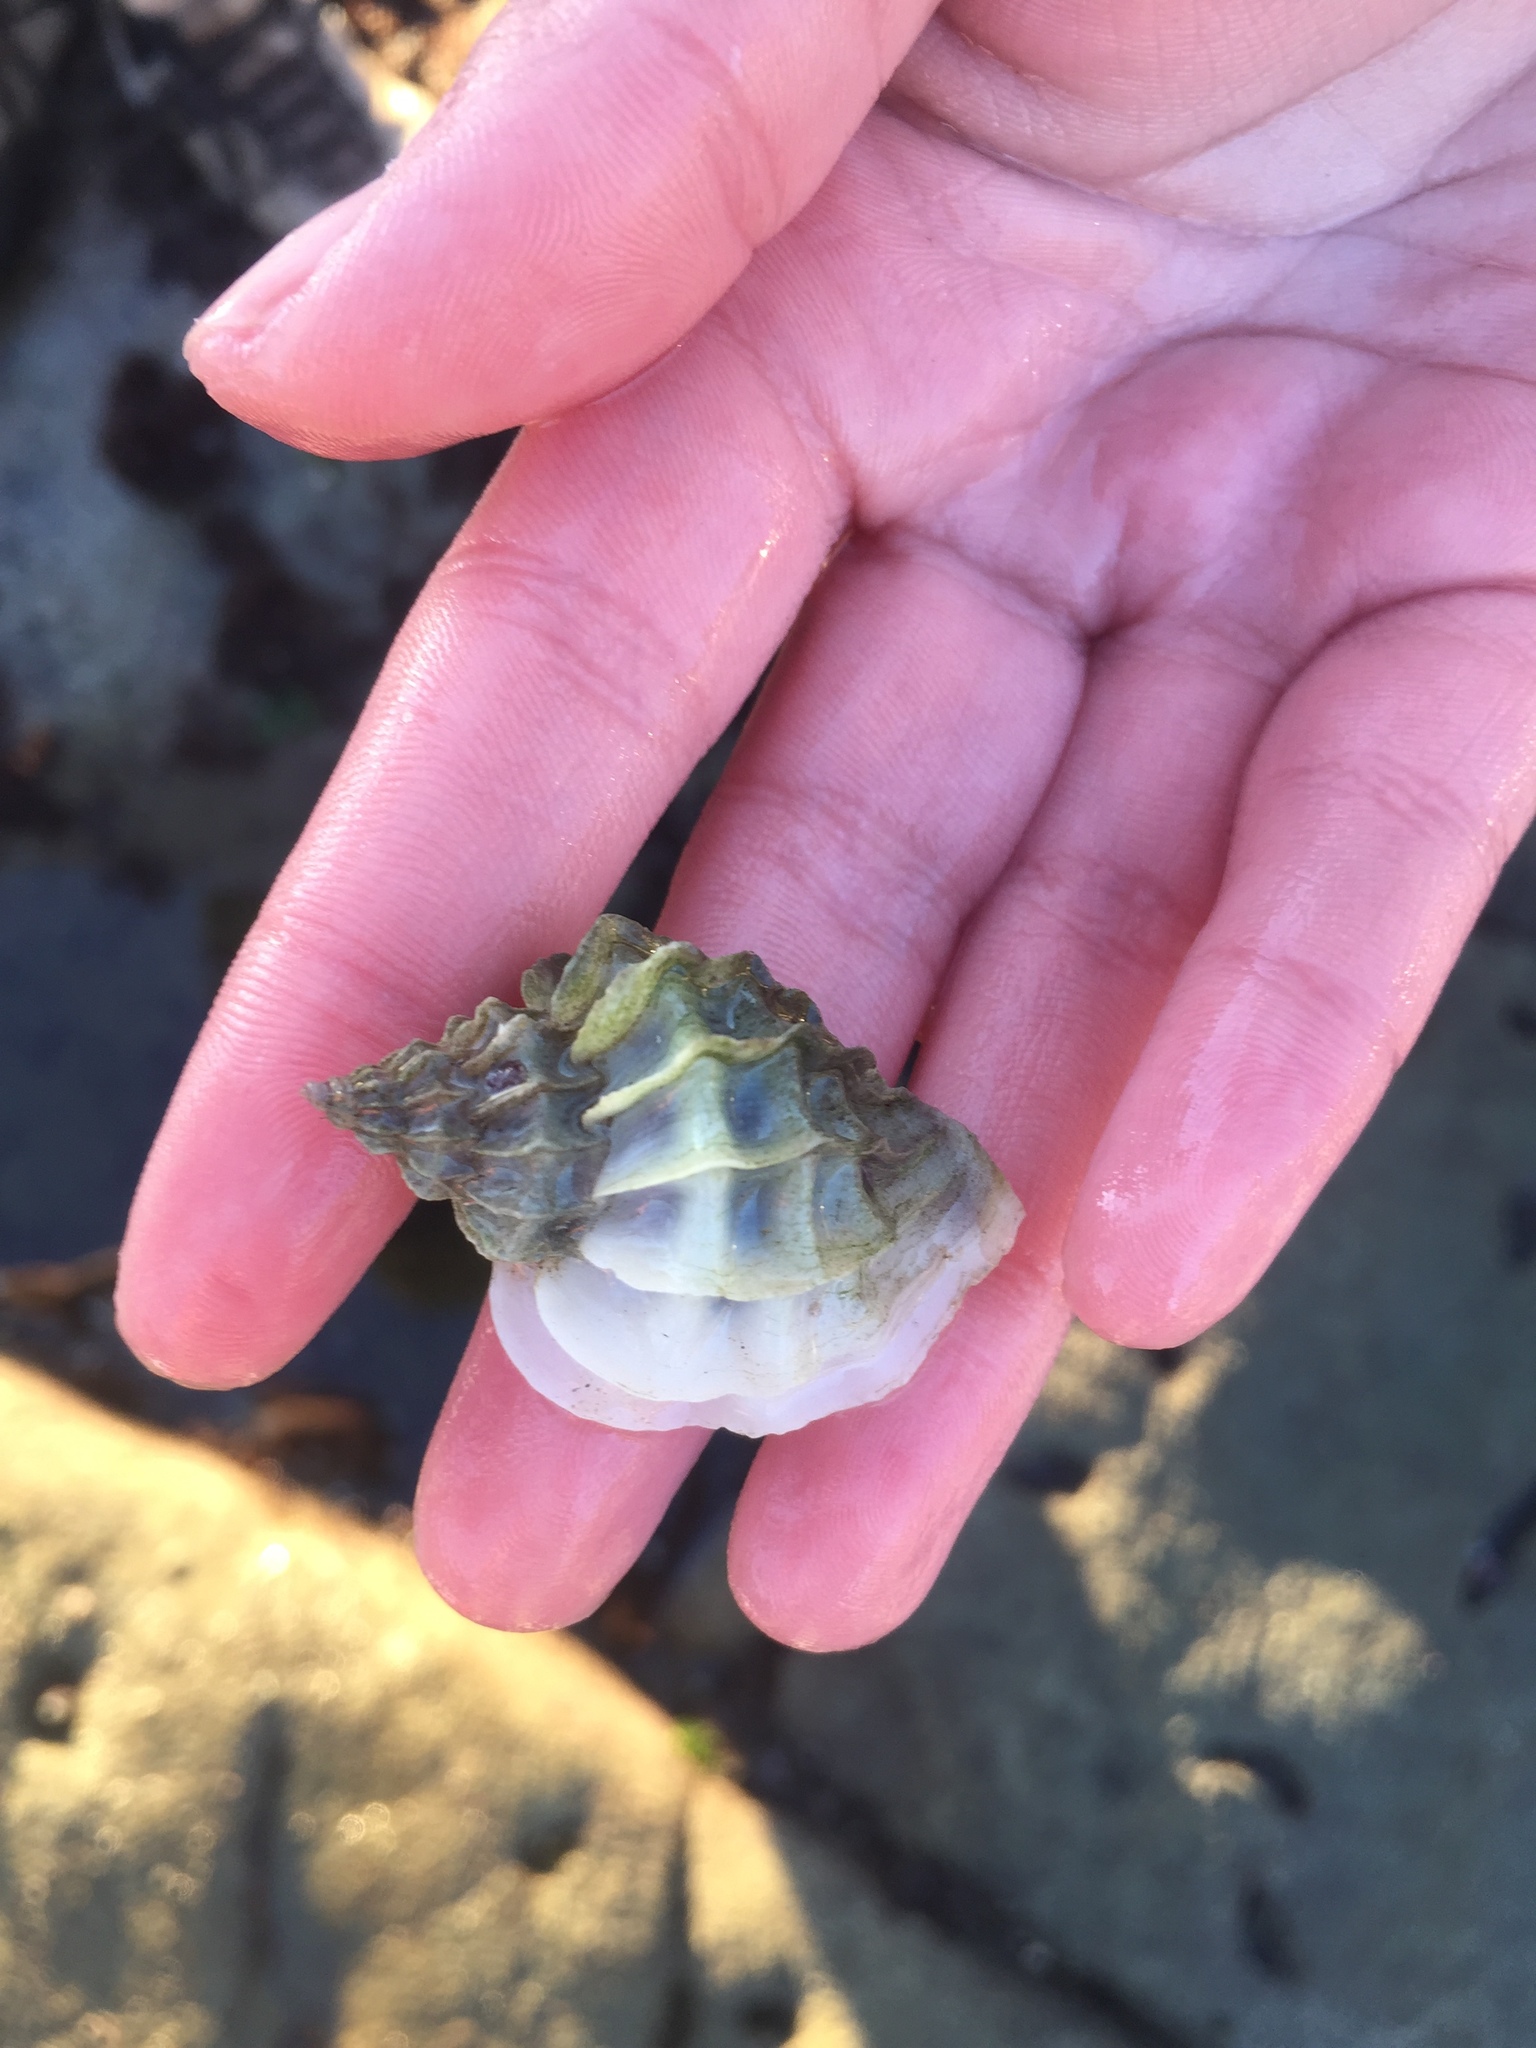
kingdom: Animalia
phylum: Mollusca
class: Gastropoda
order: Neogastropoda
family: Muricidae
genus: Crassilabrum
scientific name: Crassilabrum crassilabrum
